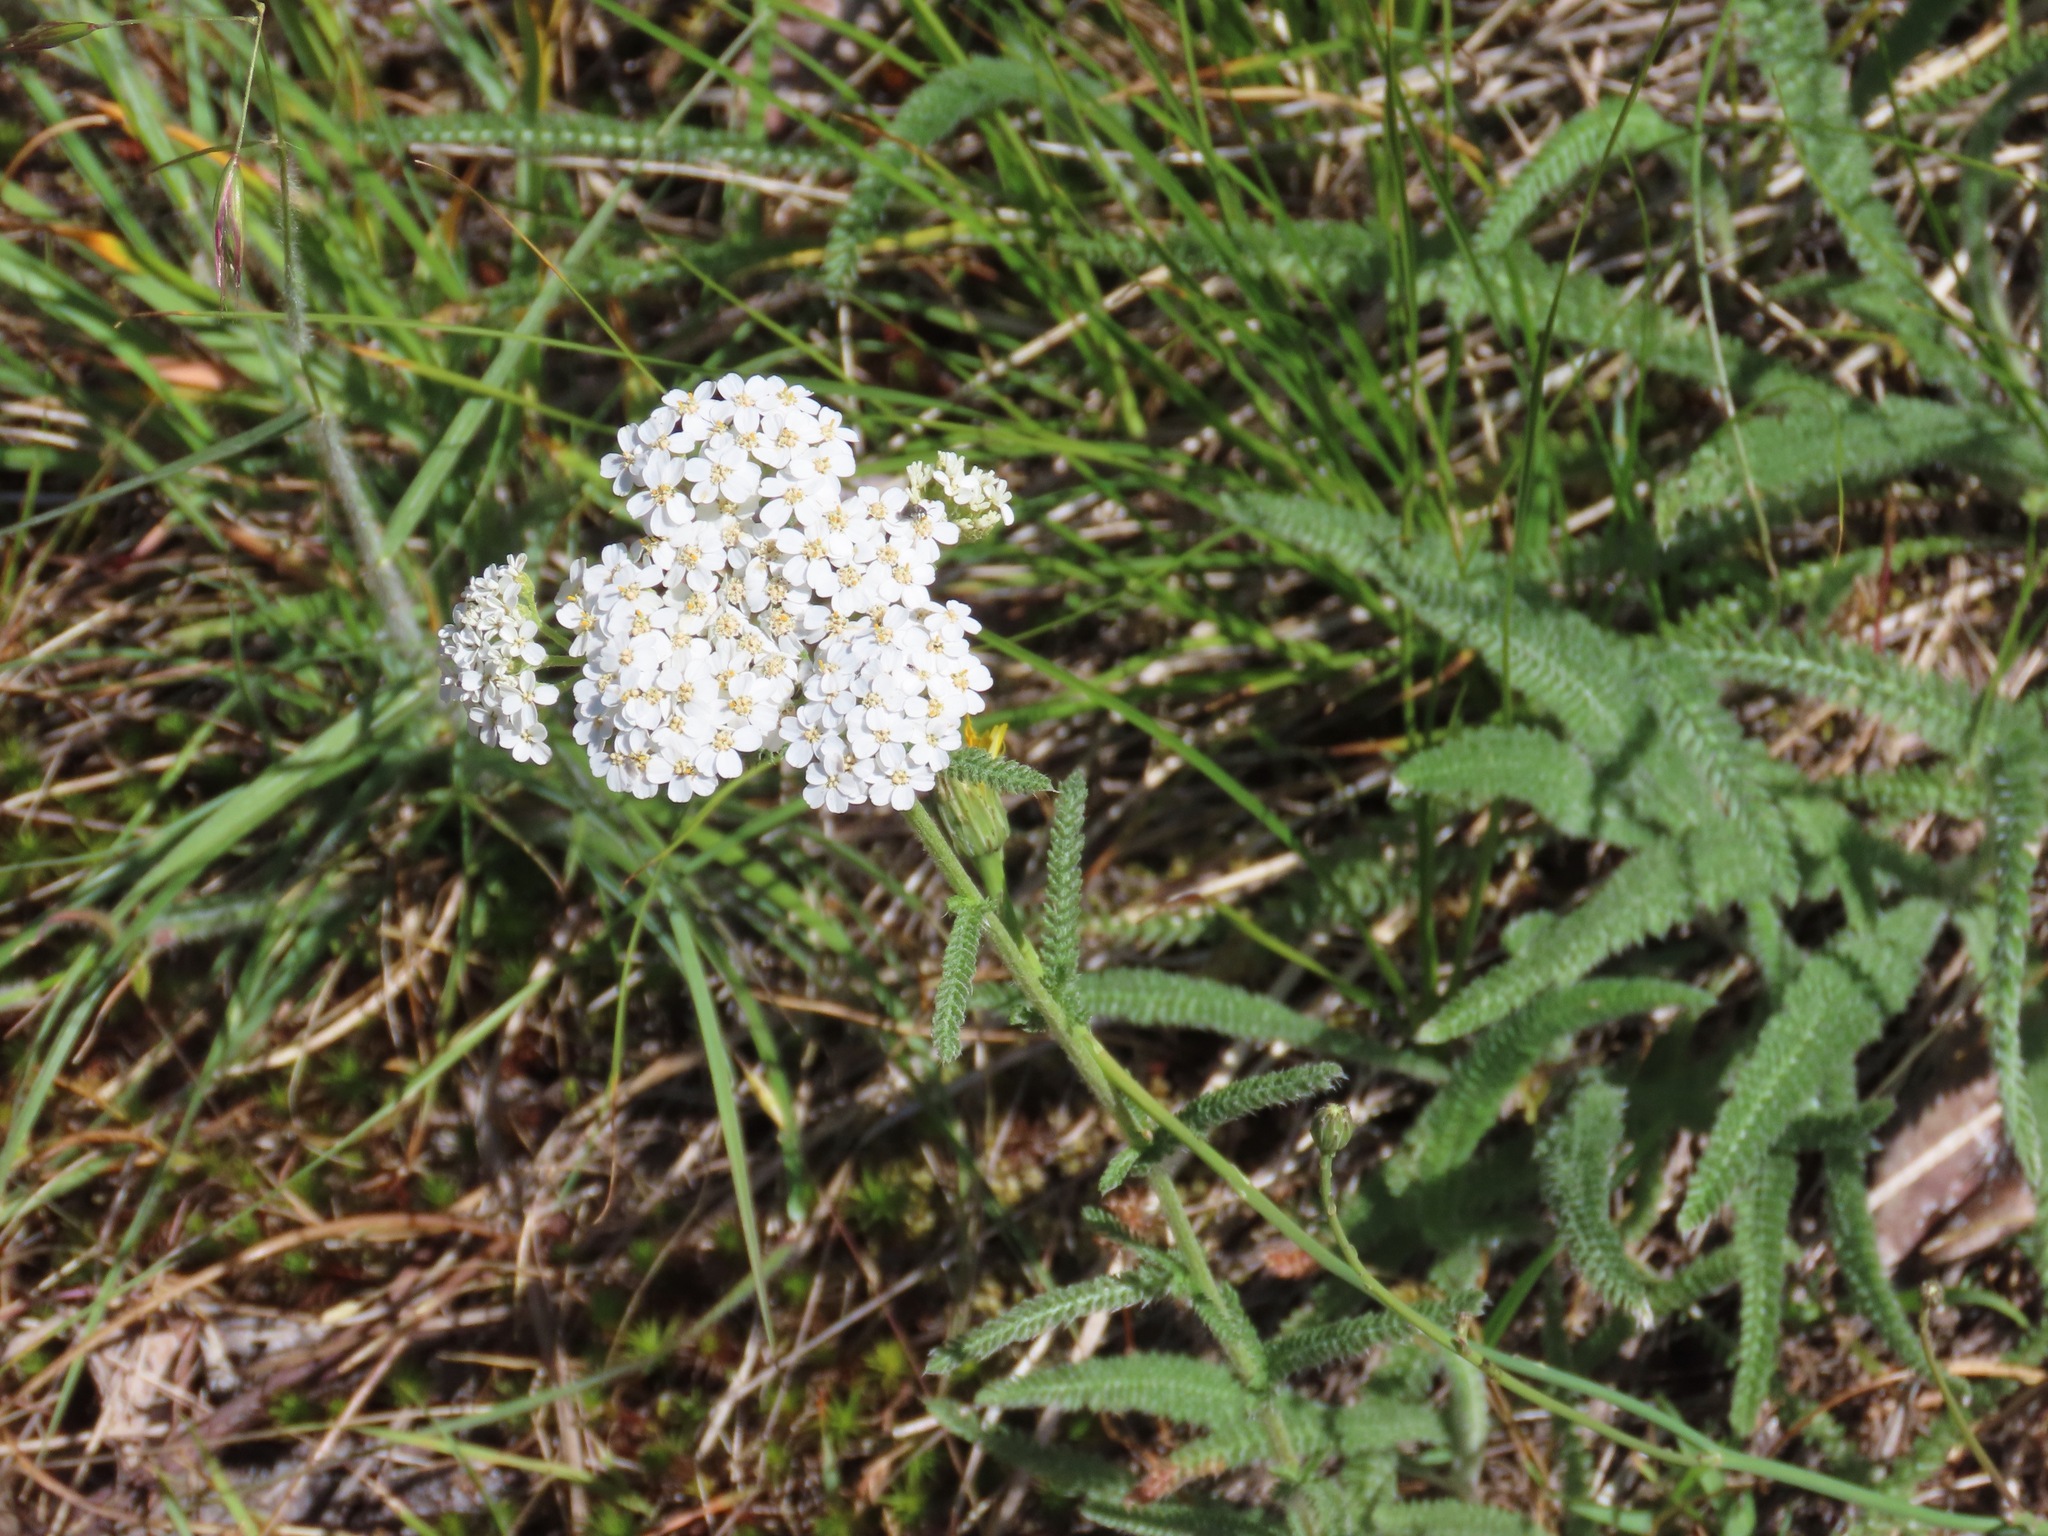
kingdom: Plantae
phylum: Tracheophyta
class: Magnoliopsida
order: Asterales
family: Asteraceae
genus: Achillea
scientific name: Achillea millefolium
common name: Yarrow
